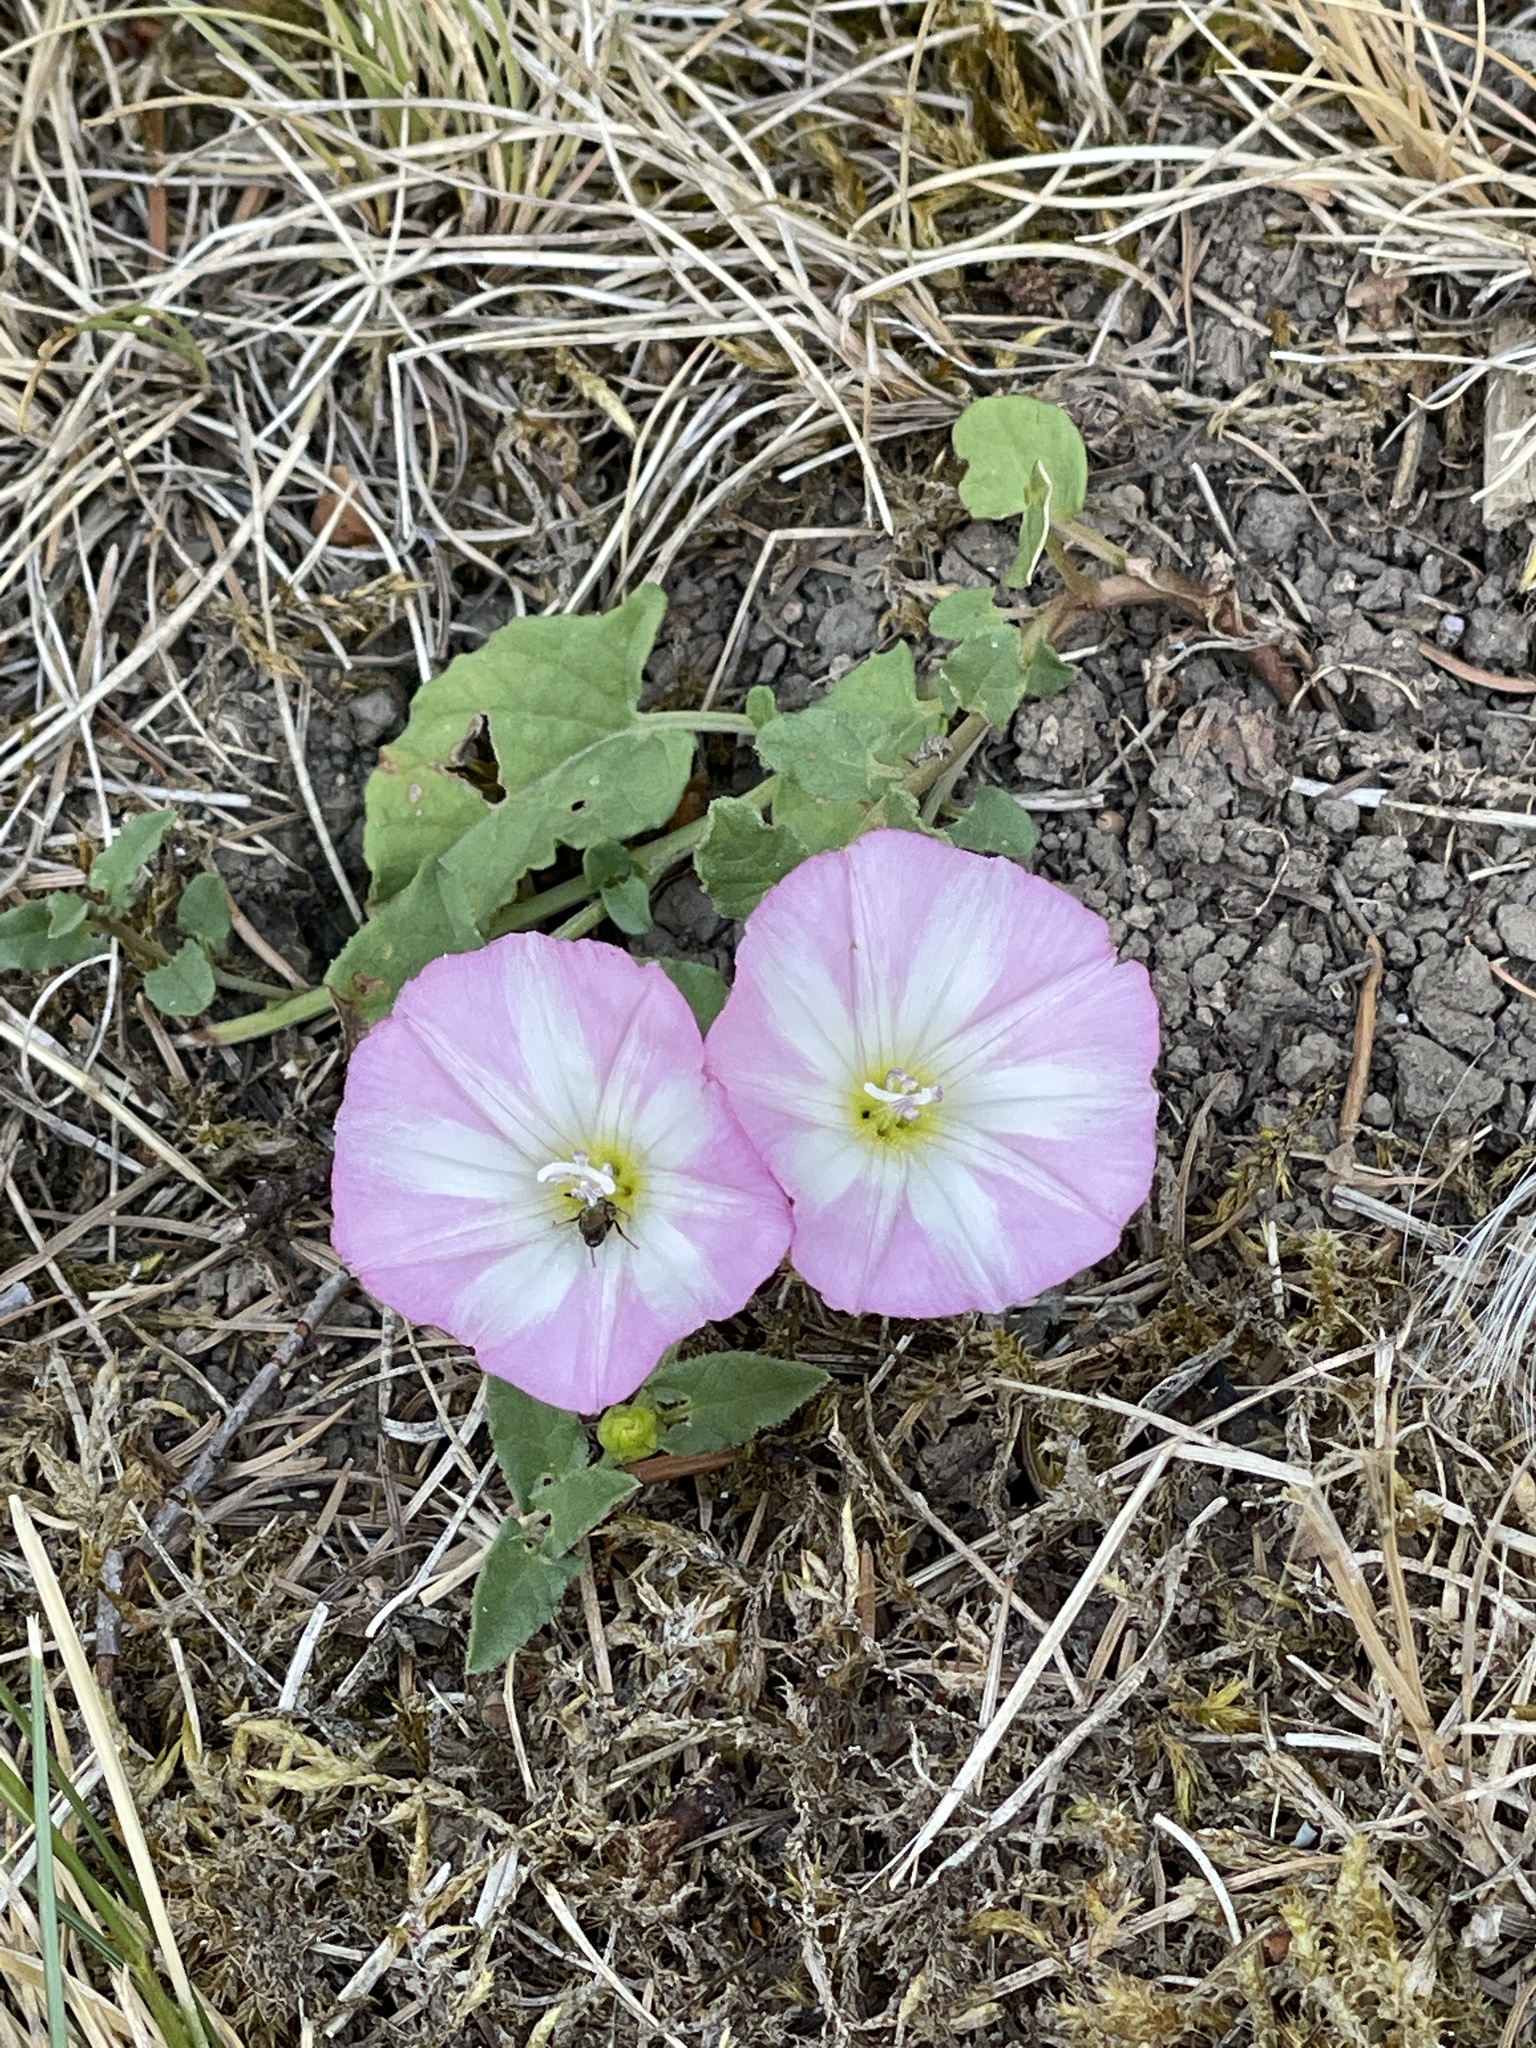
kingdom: Plantae
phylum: Tracheophyta
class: Magnoliopsida
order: Solanales
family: Convolvulaceae
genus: Convolvulus
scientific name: Convolvulus arvensis
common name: Field bindweed
